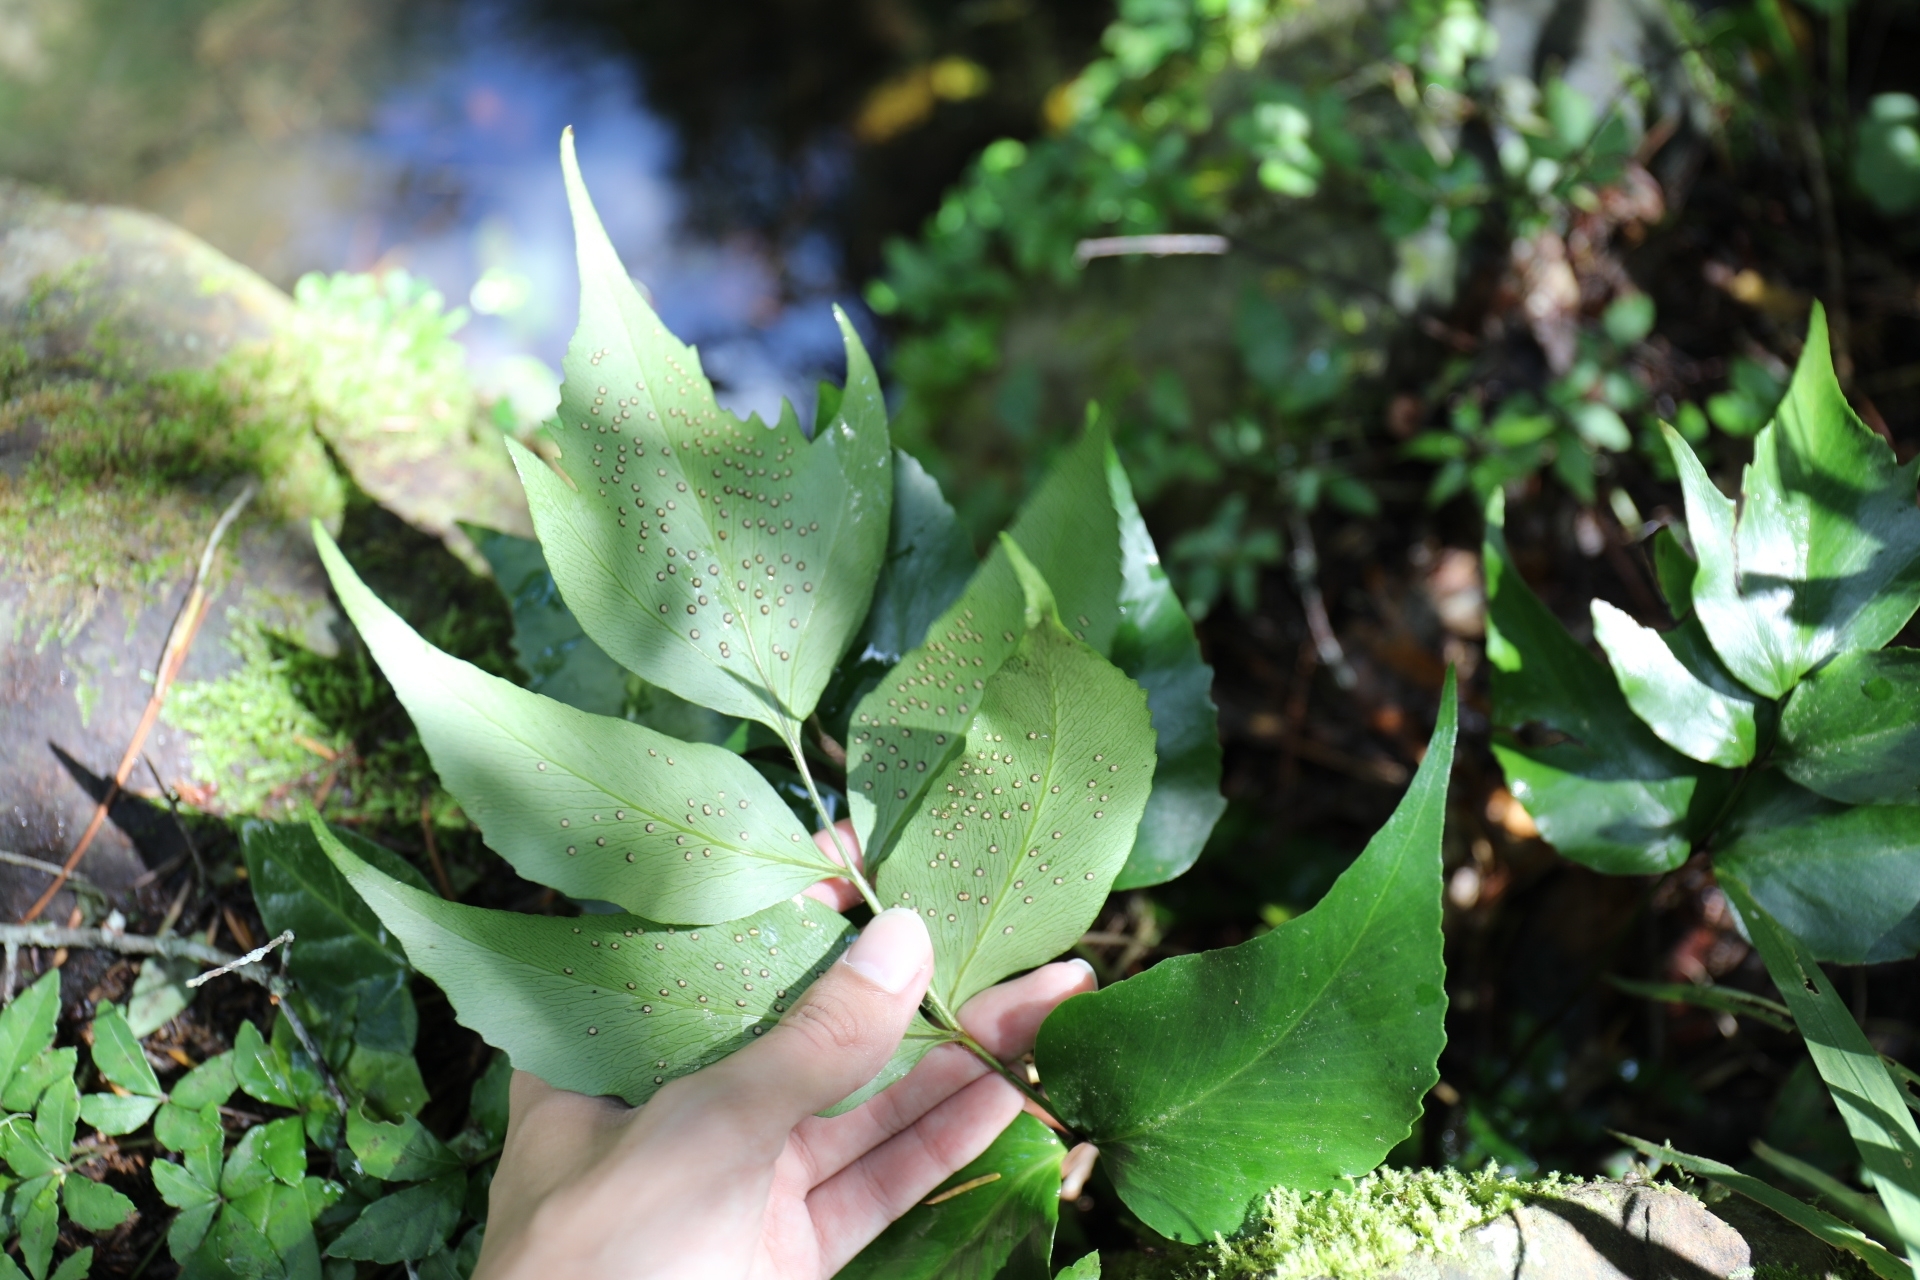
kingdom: Plantae
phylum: Tracheophyta
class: Polypodiopsida
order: Polypodiales
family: Dryopteridaceae
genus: Cyrtomium
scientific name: Cyrtomium falcatum
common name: House holly-fern
